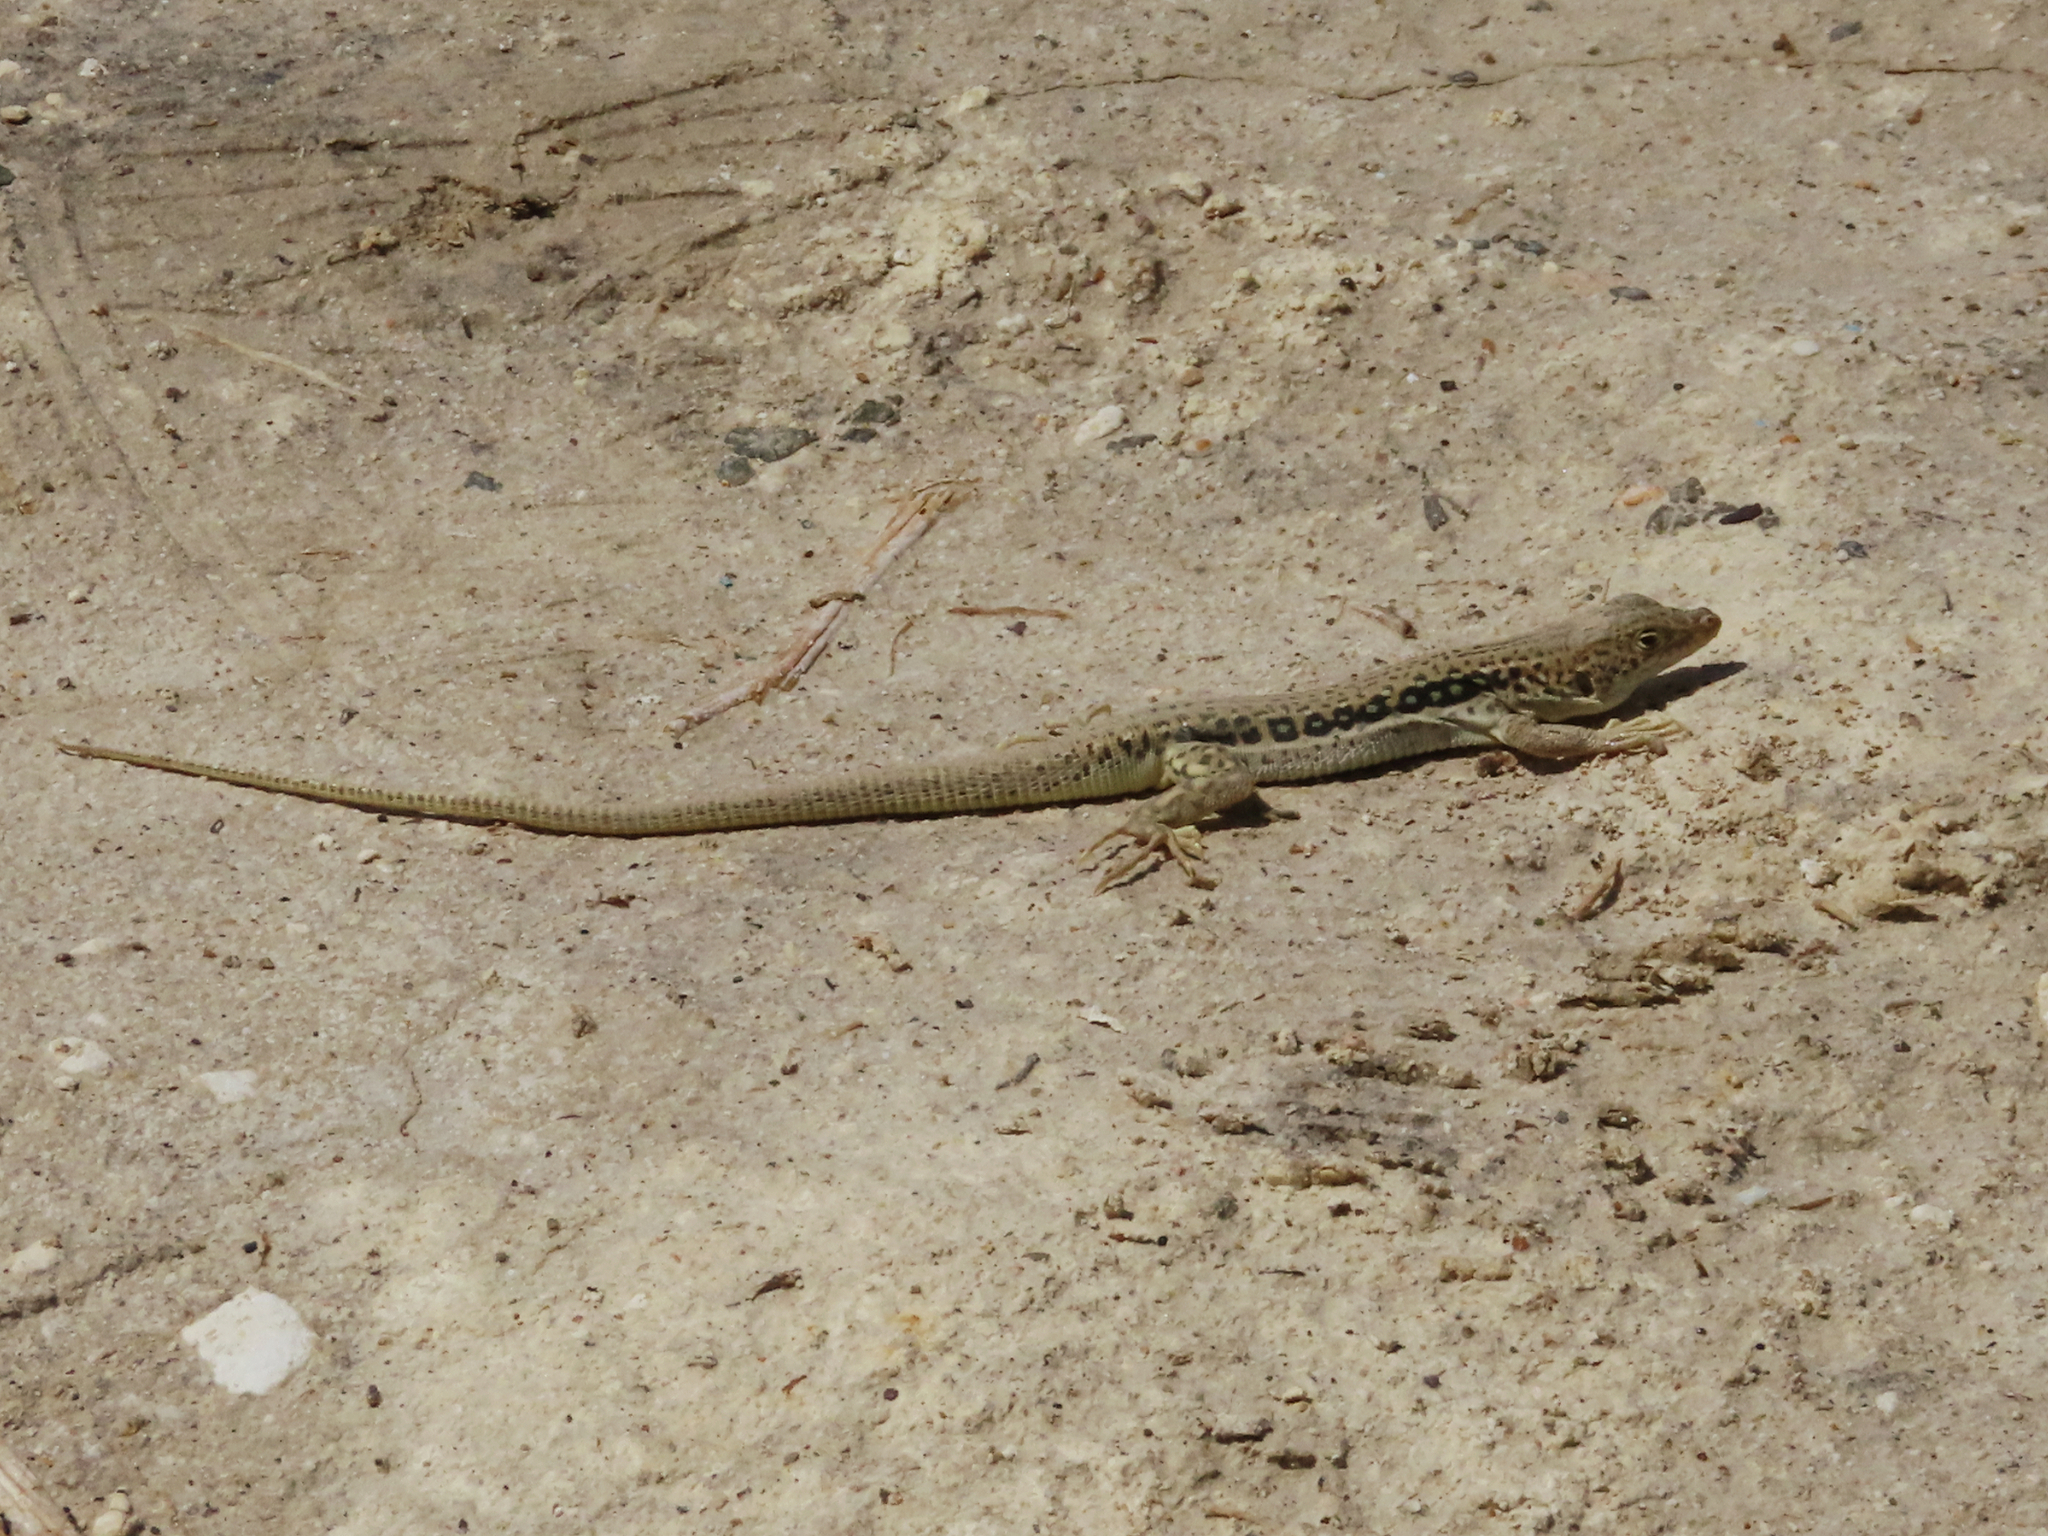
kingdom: Animalia
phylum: Chordata
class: Squamata
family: Lacertidae
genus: Eremias
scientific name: Eremias velox
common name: Central asian racerunner
